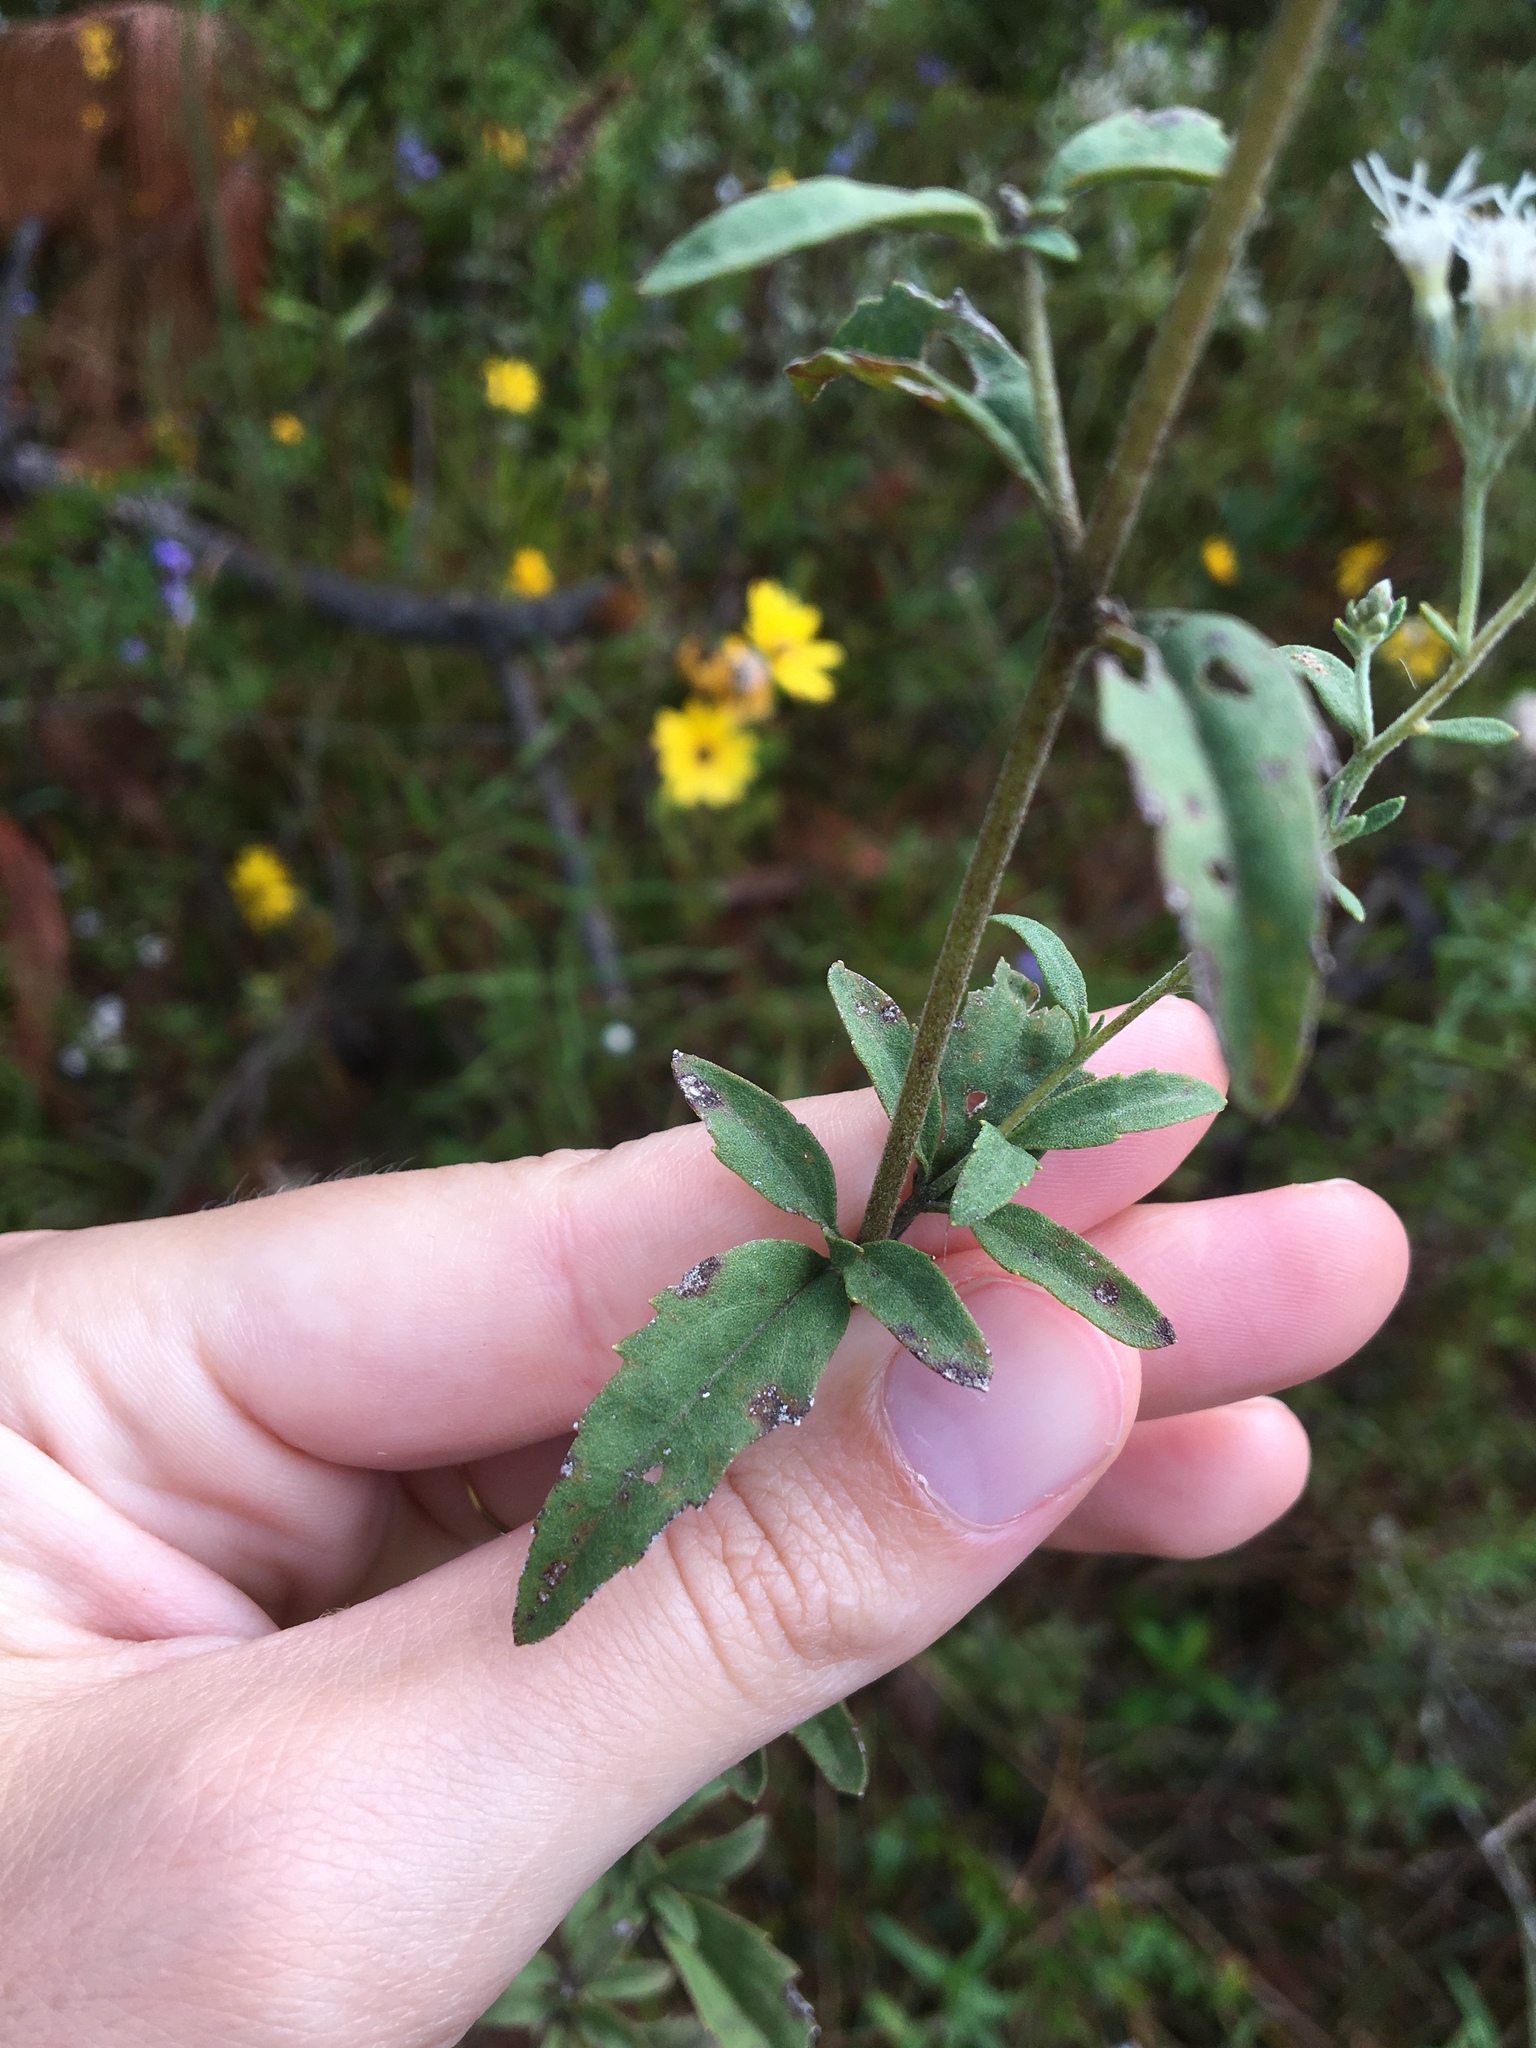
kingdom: Plantae
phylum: Tracheophyta
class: Magnoliopsida
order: Asterales
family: Asteraceae
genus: Eupatorium
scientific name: Eupatorium pilosum
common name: Rough boneset
